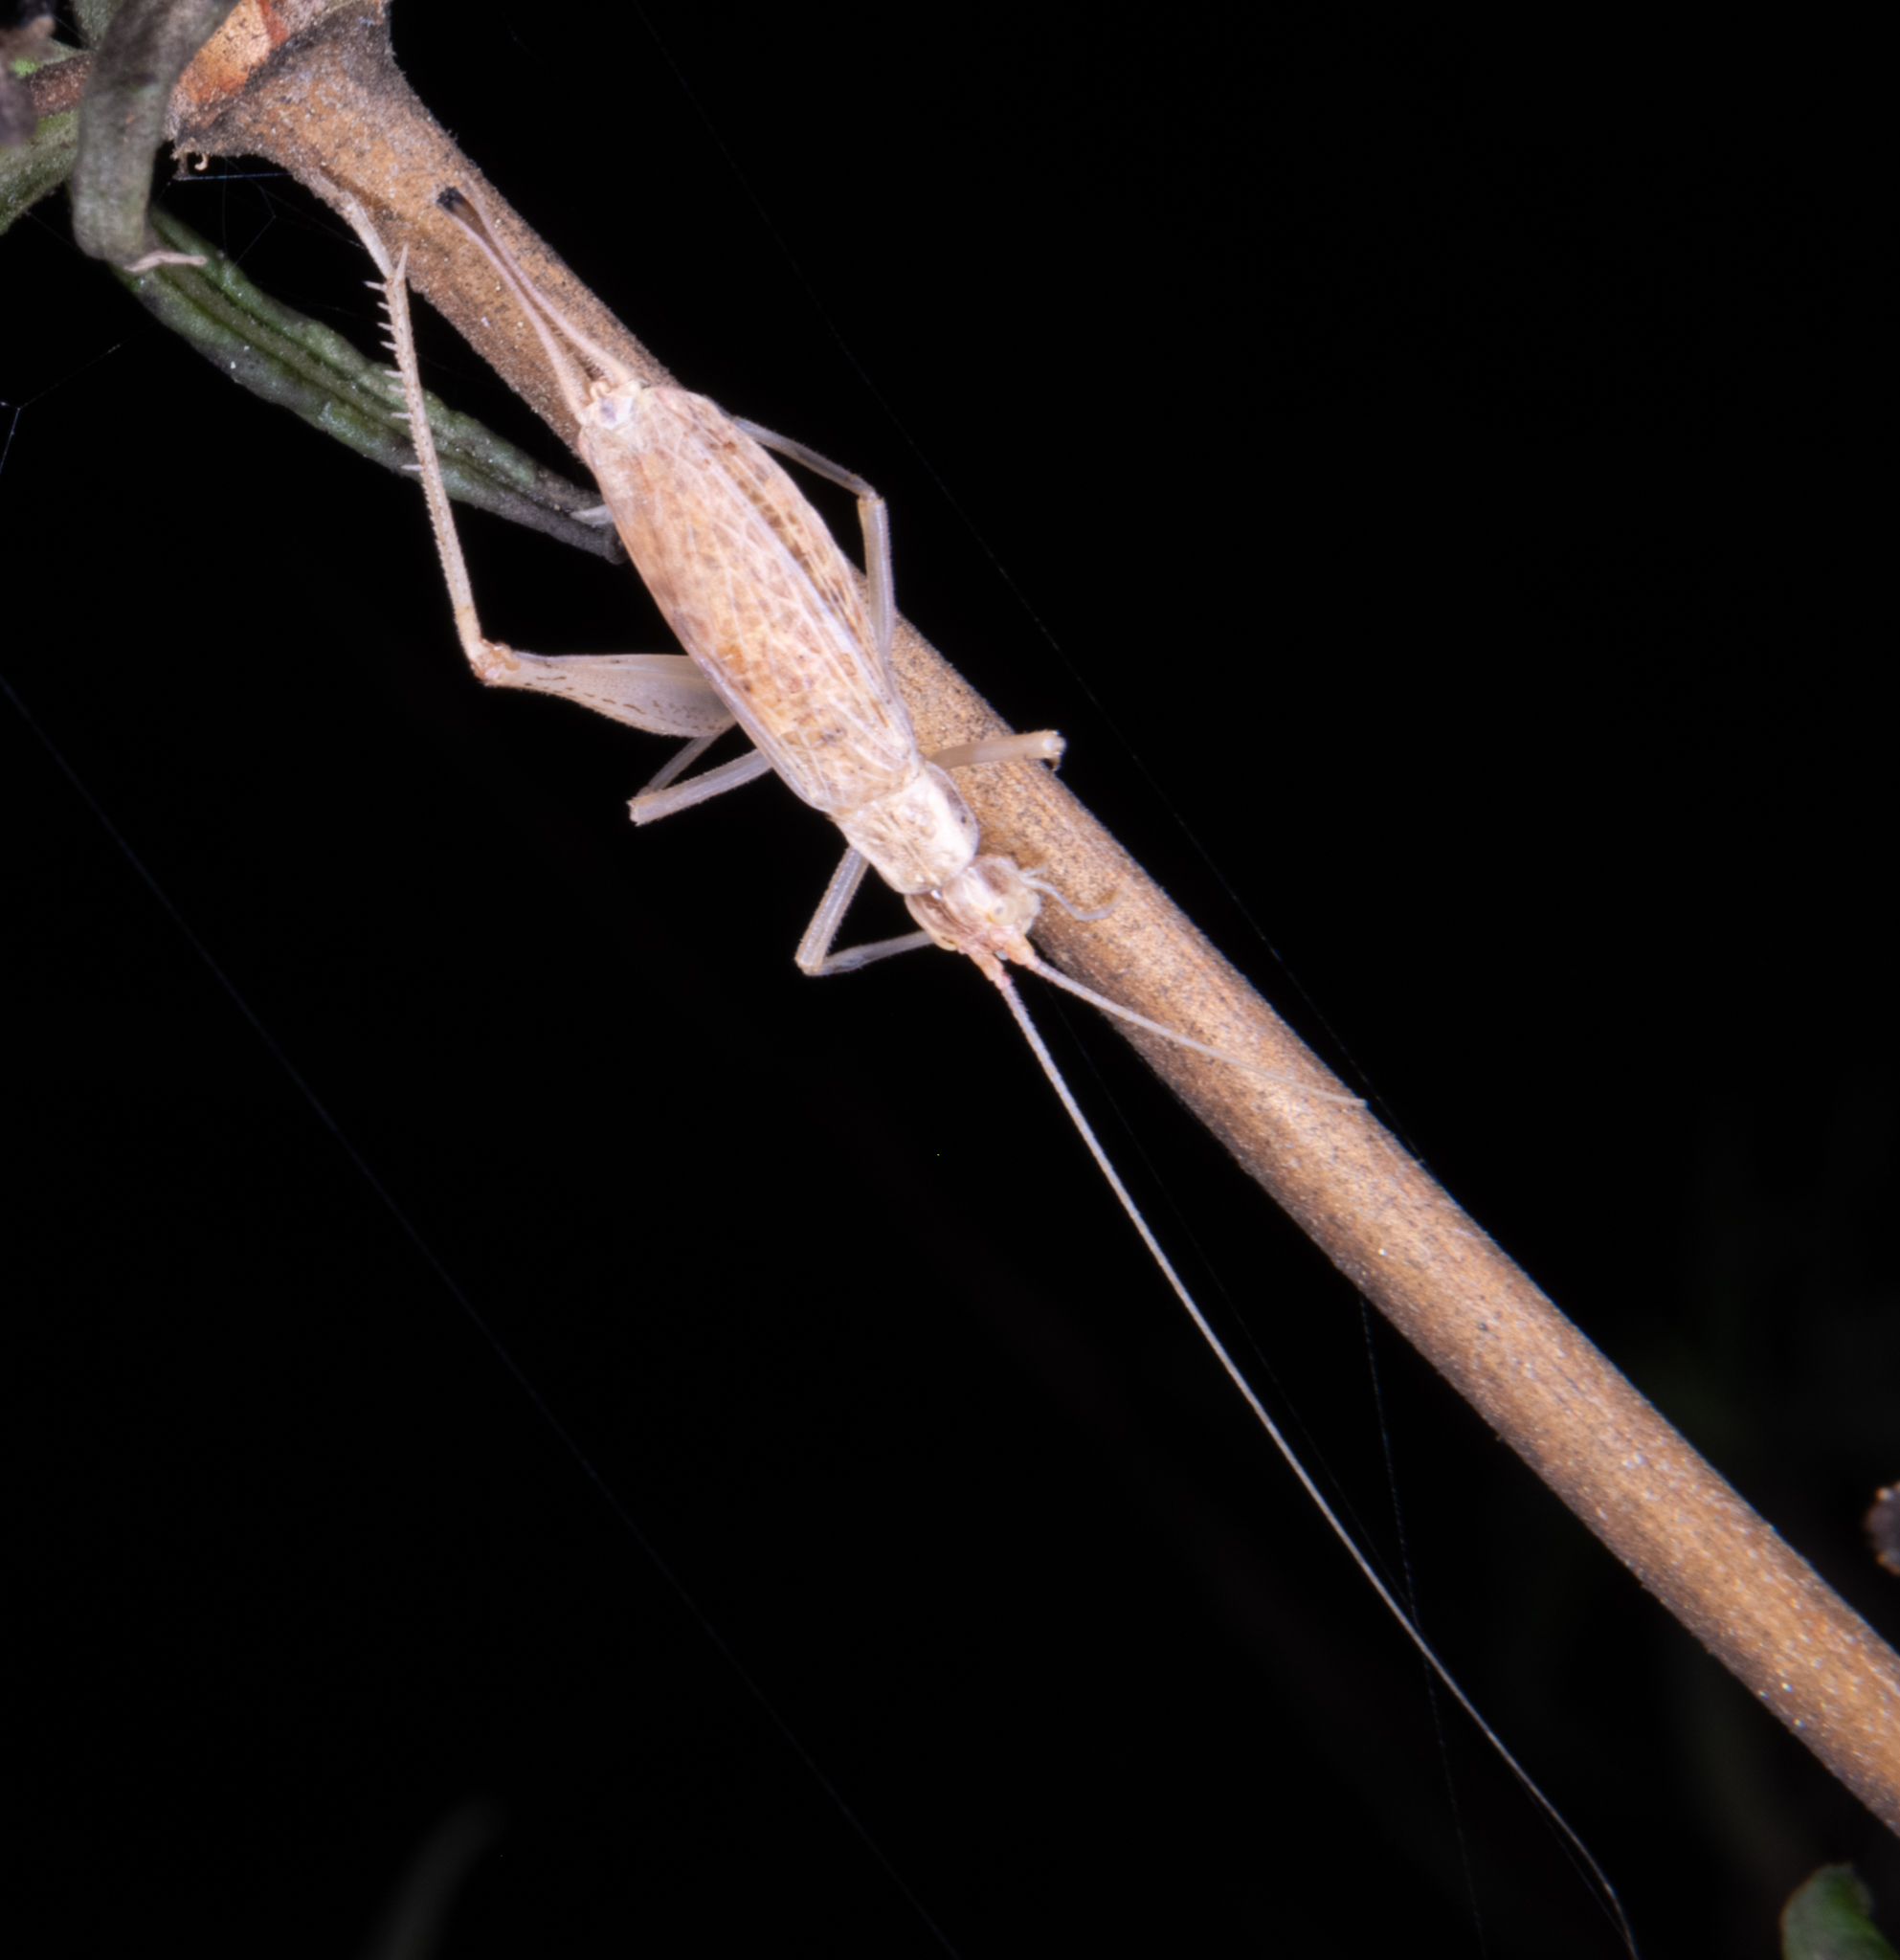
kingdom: Animalia
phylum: Arthropoda
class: Insecta
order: Orthoptera
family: Gryllidae
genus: Oecanthus
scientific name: Oecanthus californicus
